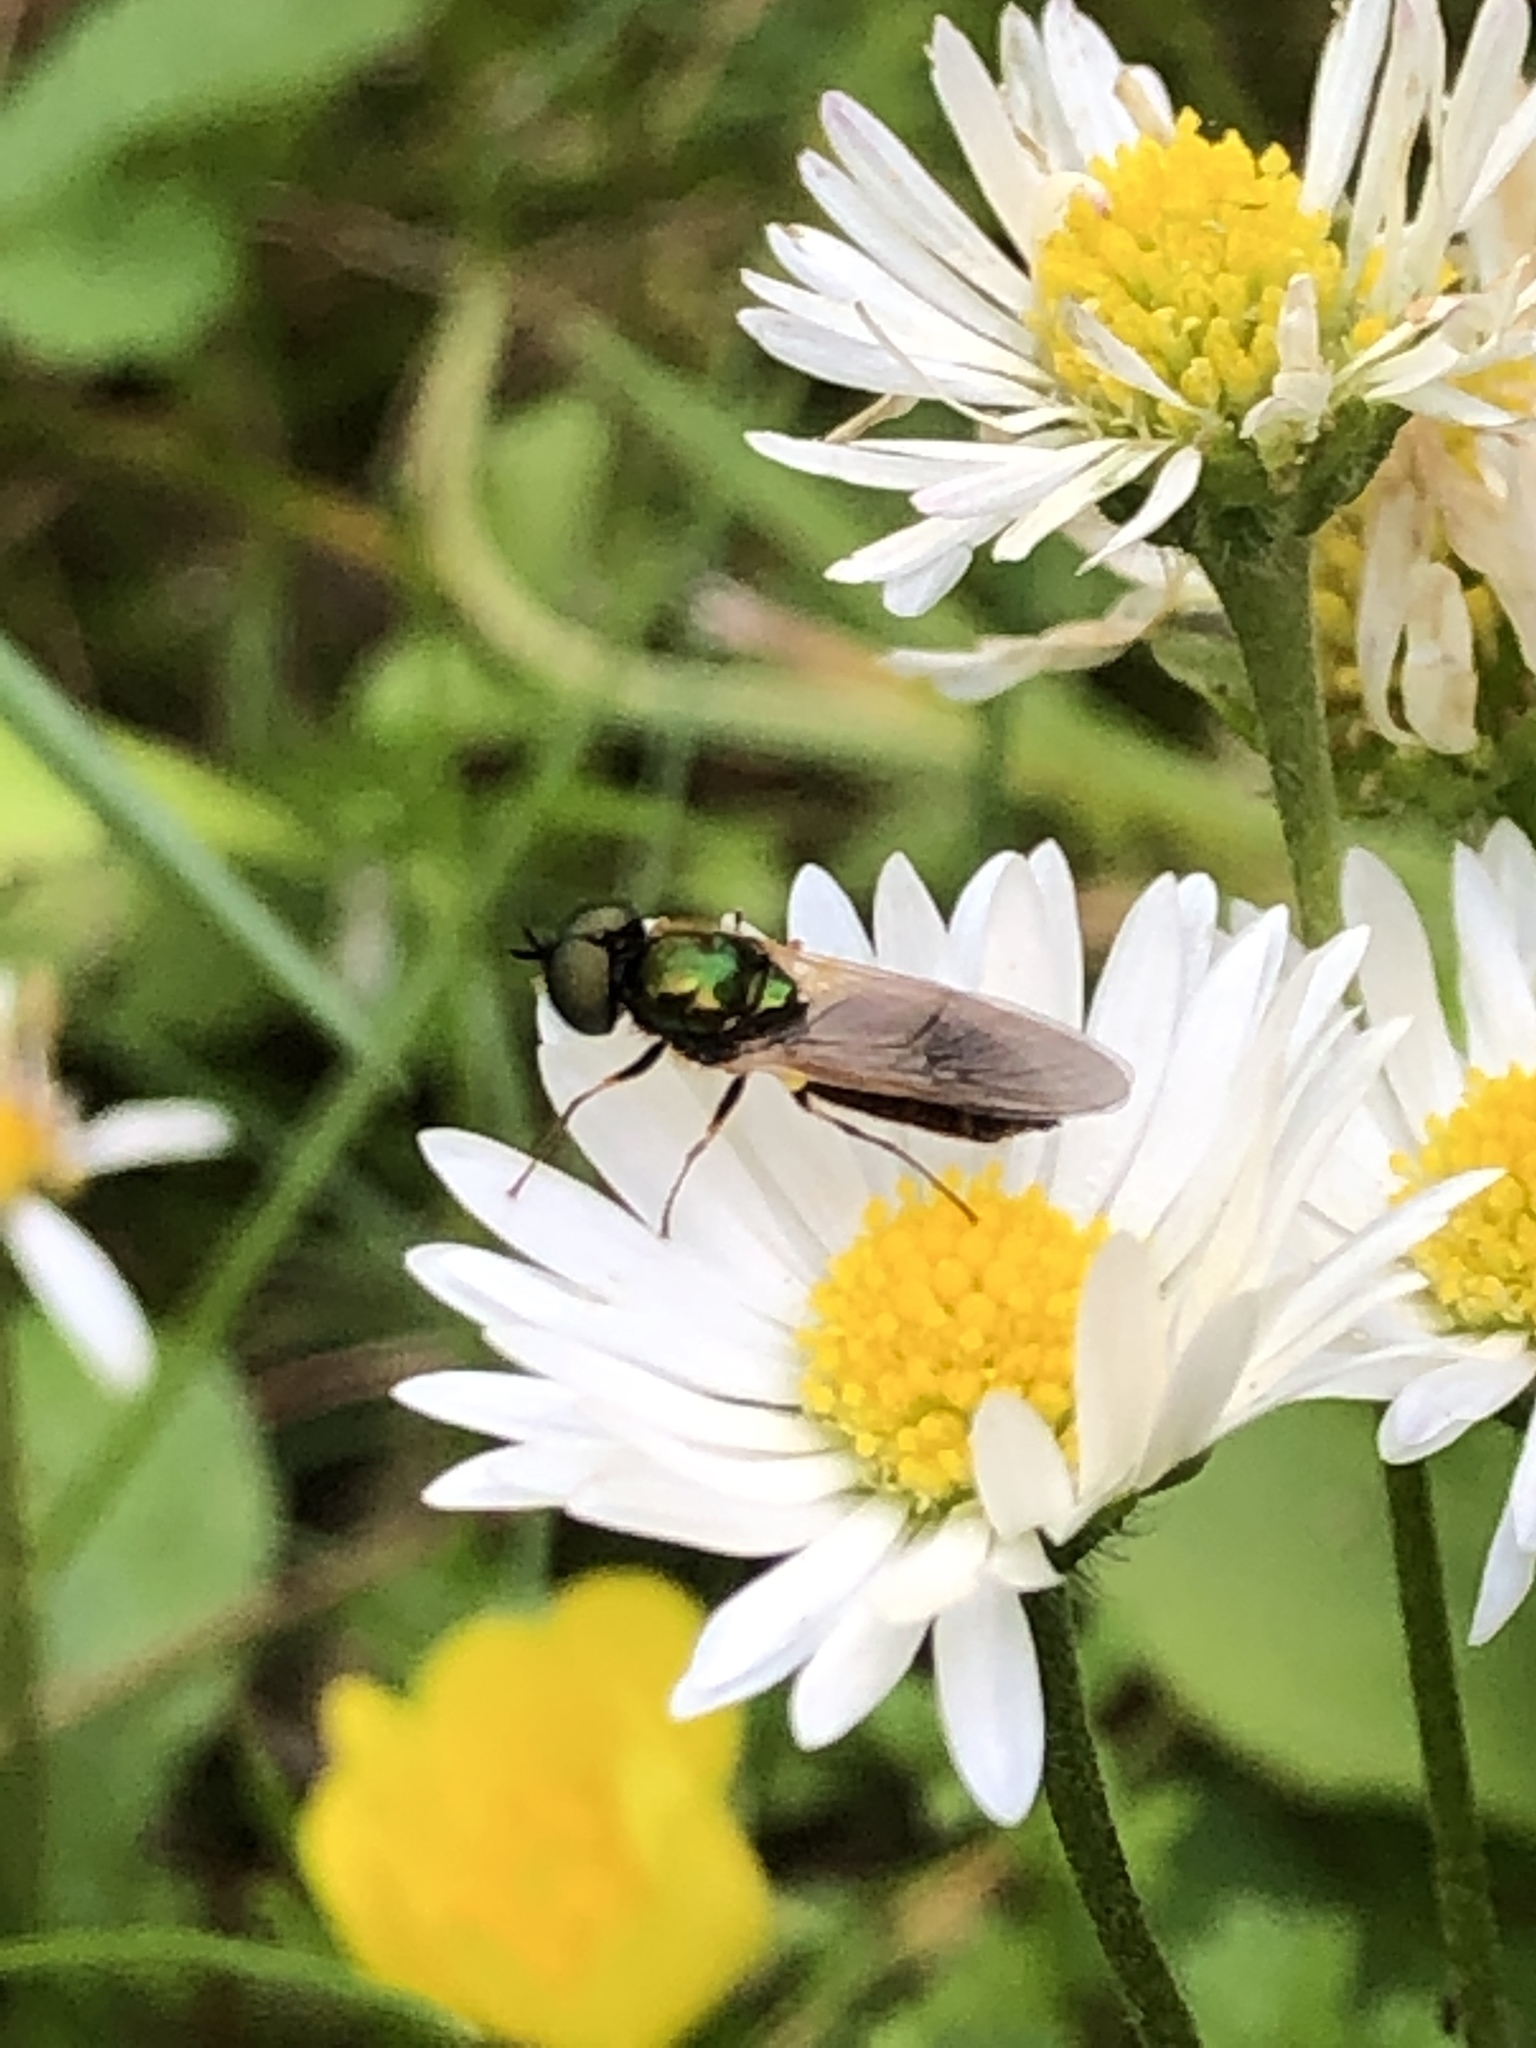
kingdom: Animalia
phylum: Arthropoda
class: Insecta
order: Diptera
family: Stratiomyidae
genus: Chloromyia
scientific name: Chloromyia formosa
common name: Soldier fly
